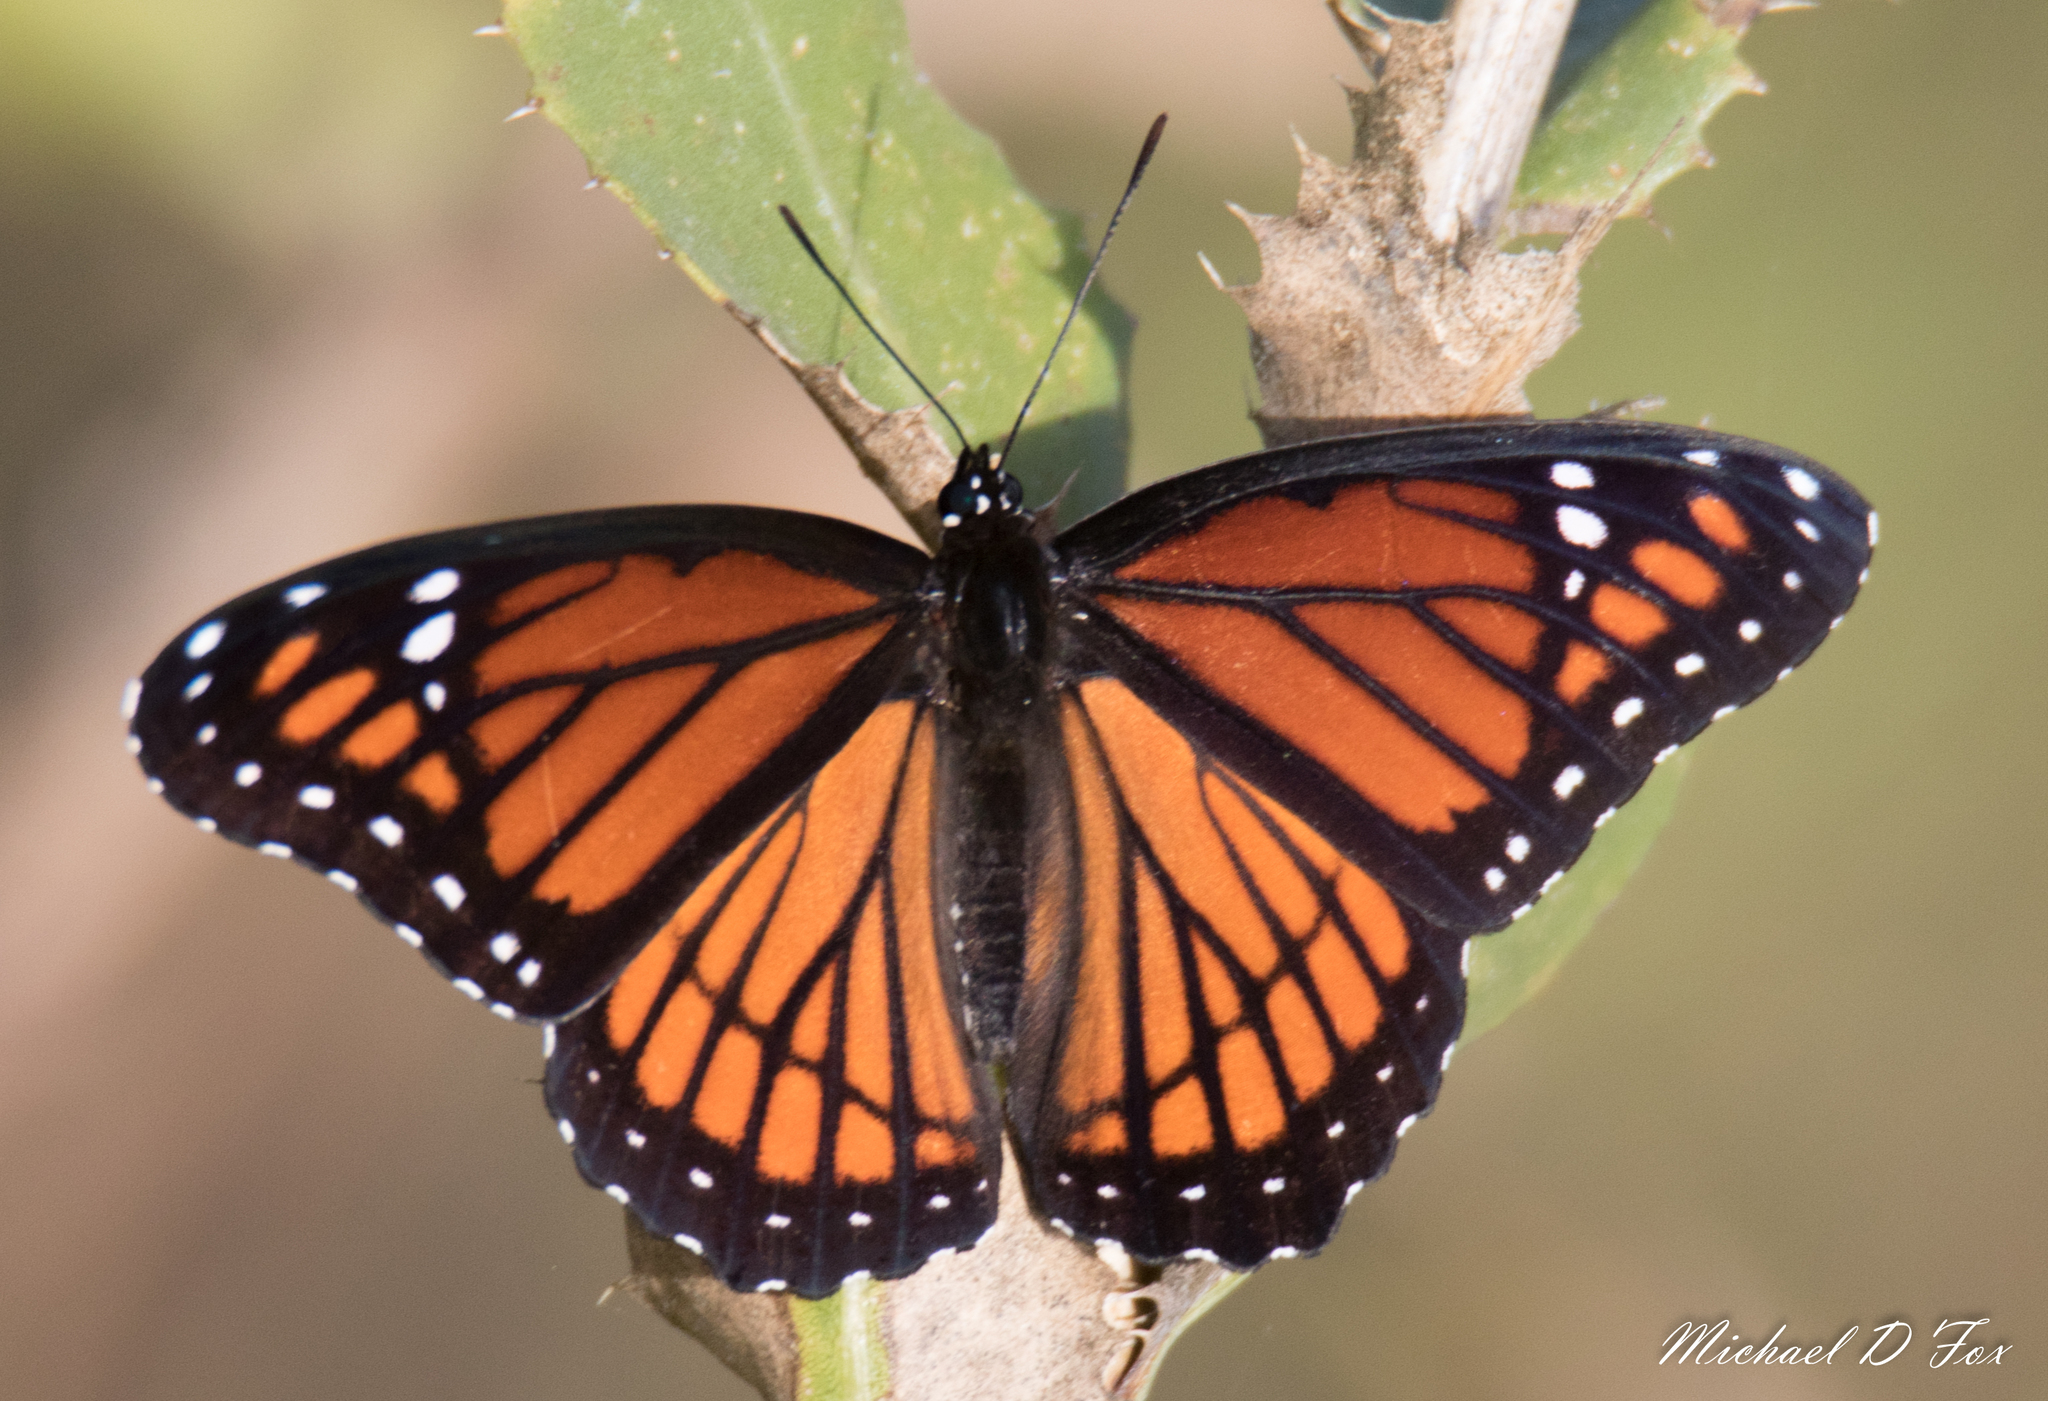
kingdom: Animalia
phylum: Arthropoda
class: Insecta
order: Lepidoptera
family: Nymphalidae
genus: Limenitis
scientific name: Limenitis archippus
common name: Viceroy
